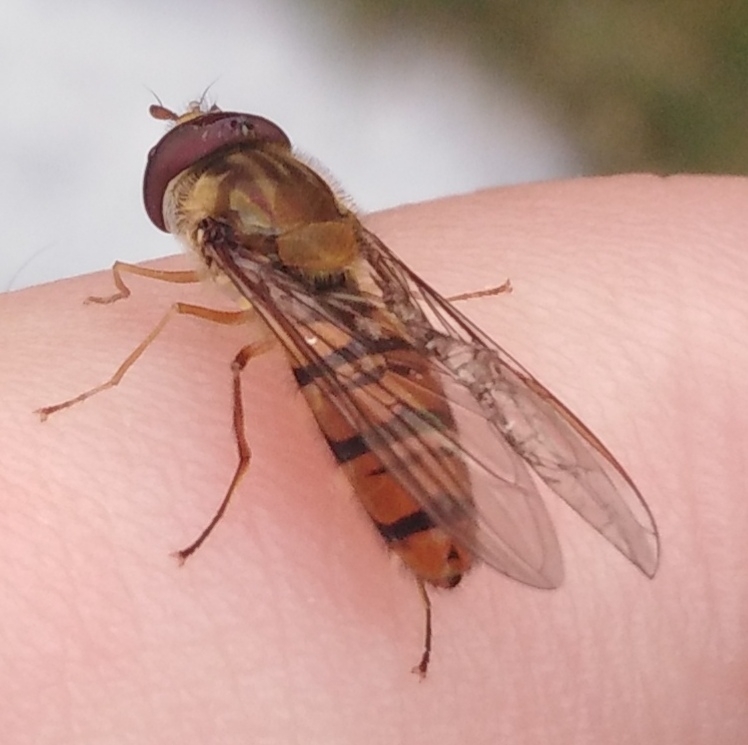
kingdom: Animalia
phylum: Arthropoda
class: Insecta
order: Diptera
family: Syrphidae
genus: Episyrphus
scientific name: Episyrphus balteatus
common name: Marmalade hoverfly
